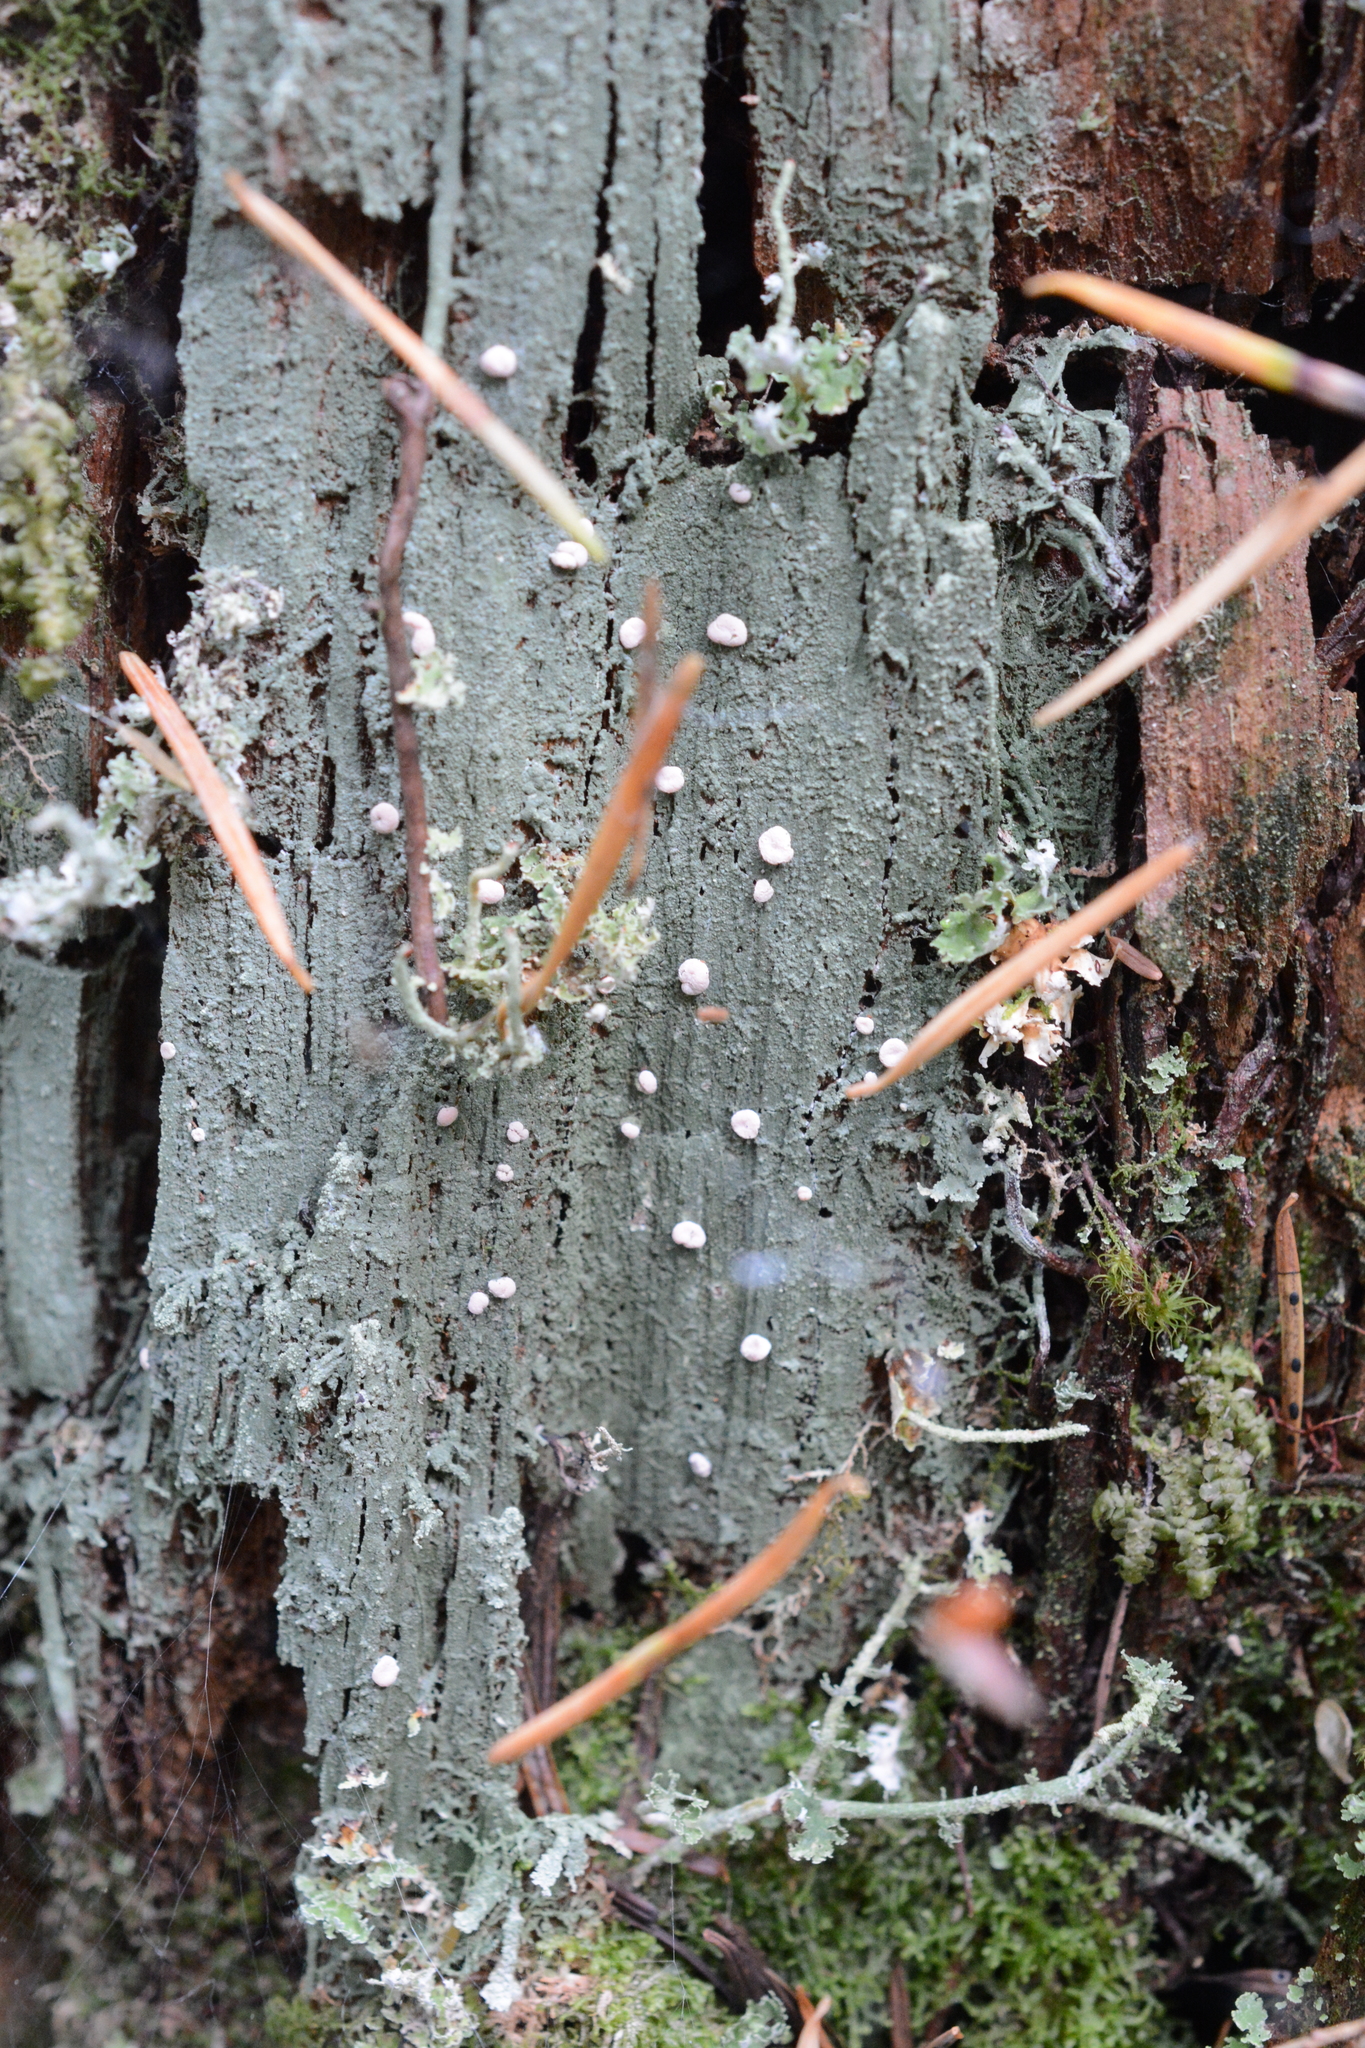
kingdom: Fungi
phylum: Ascomycota
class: Lecanoromycetes
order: Pertusariales
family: Icmadophilaceae
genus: Icmadophila
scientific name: Icmadophila ericetorum
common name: Candy lichen
